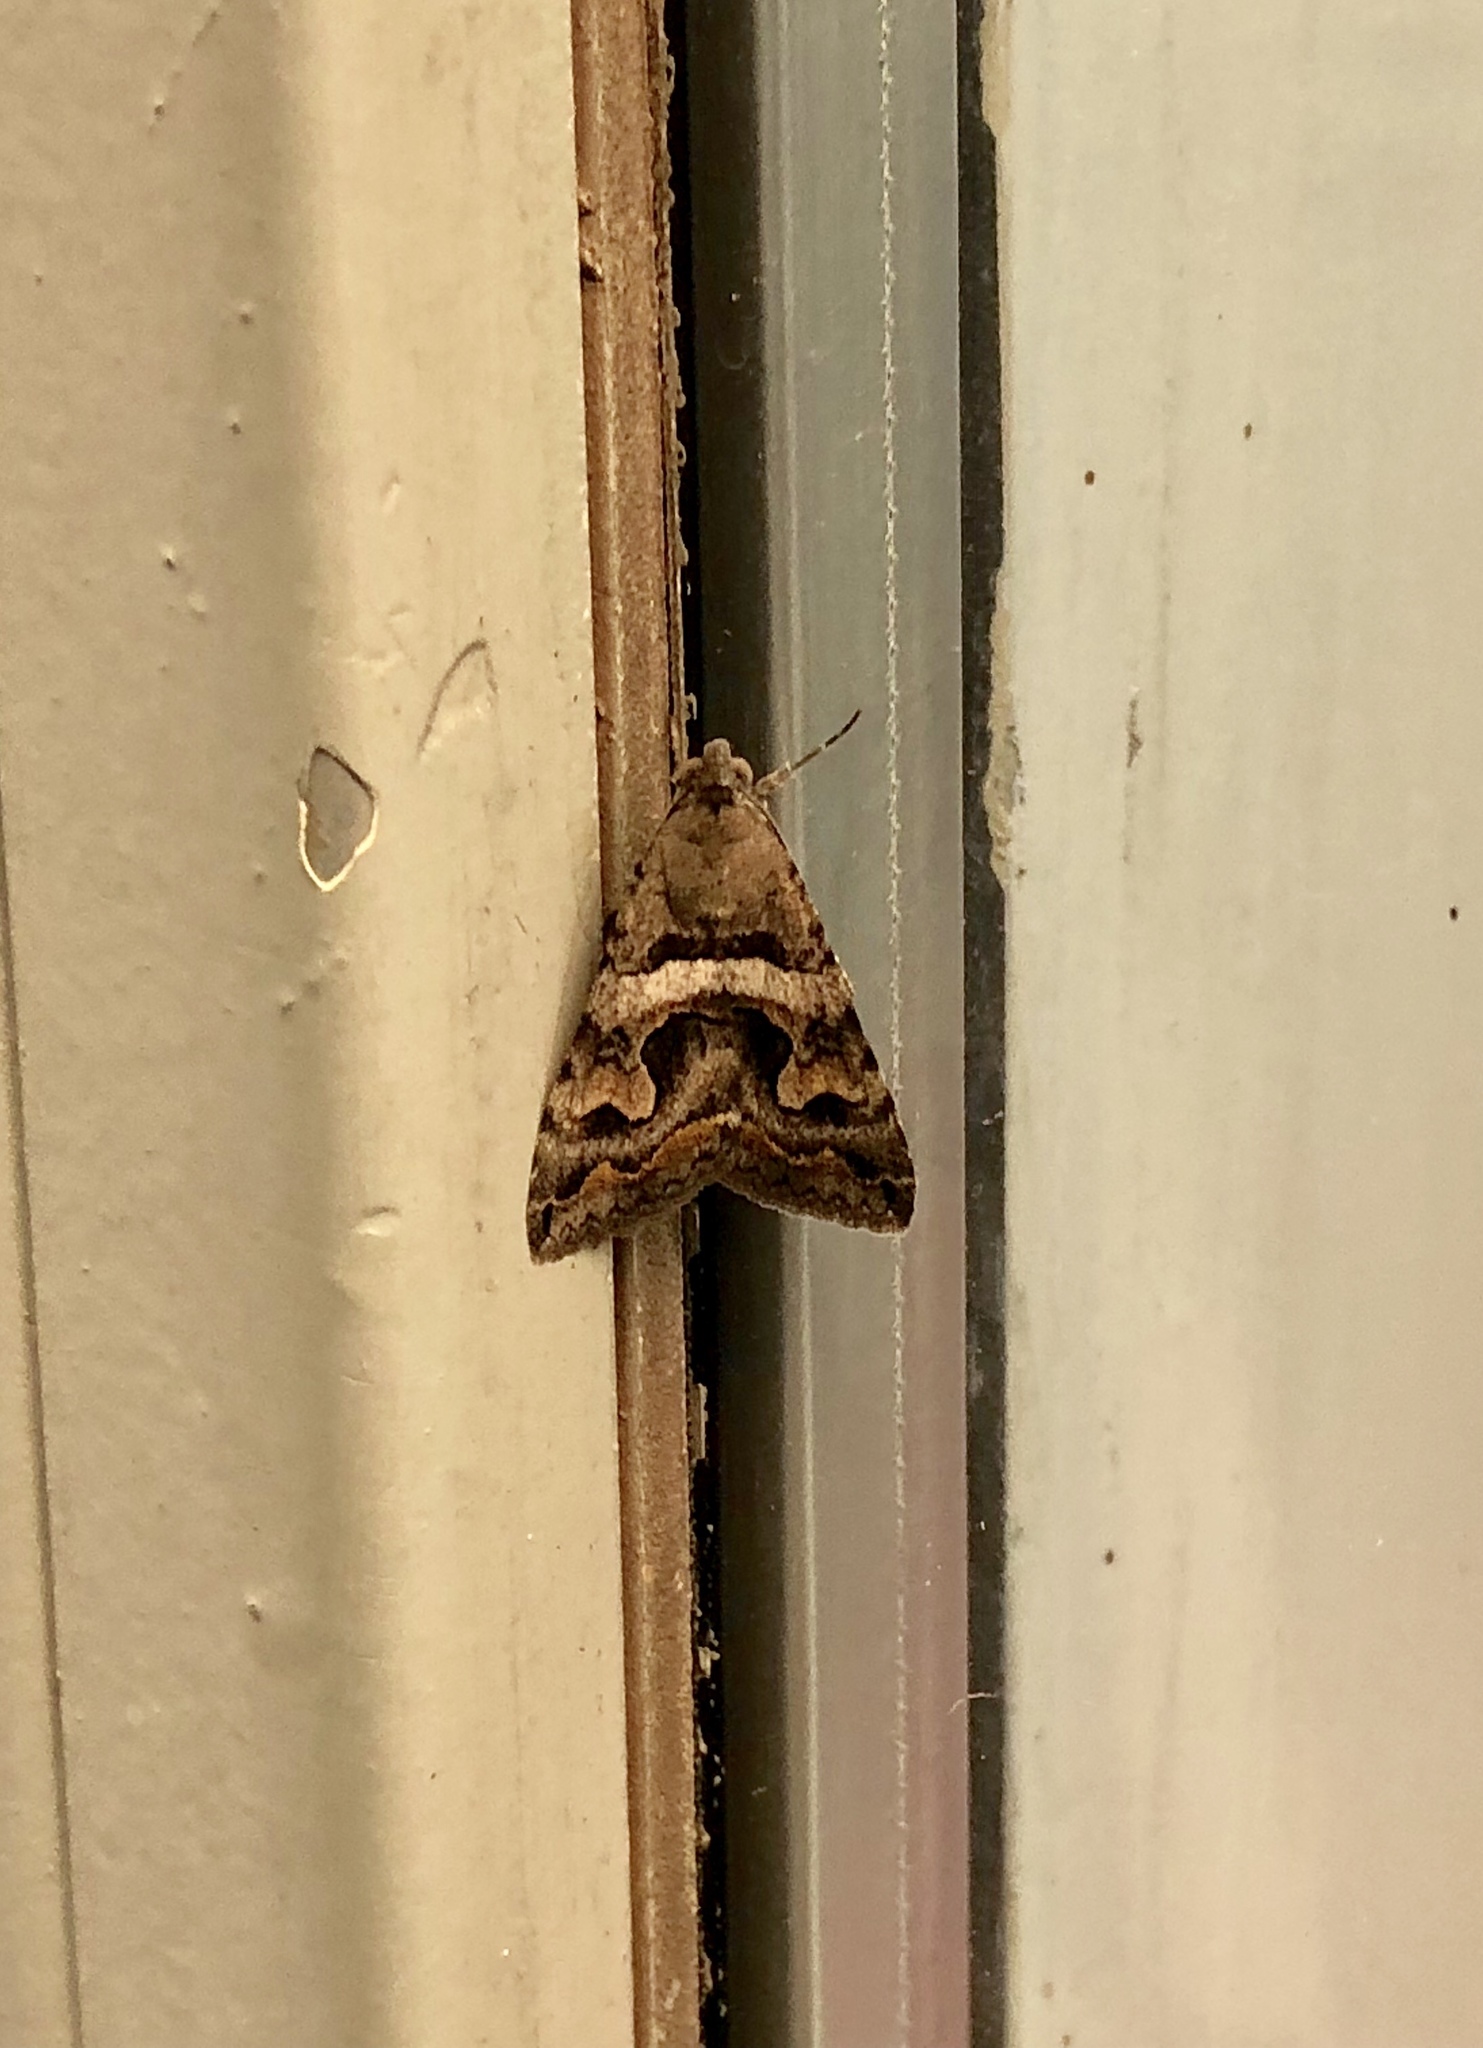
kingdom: Animalia
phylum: Arthropoda
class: Insecta
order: Lepidoptera
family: Erebidae
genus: Bulia
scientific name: Bulia deducta
